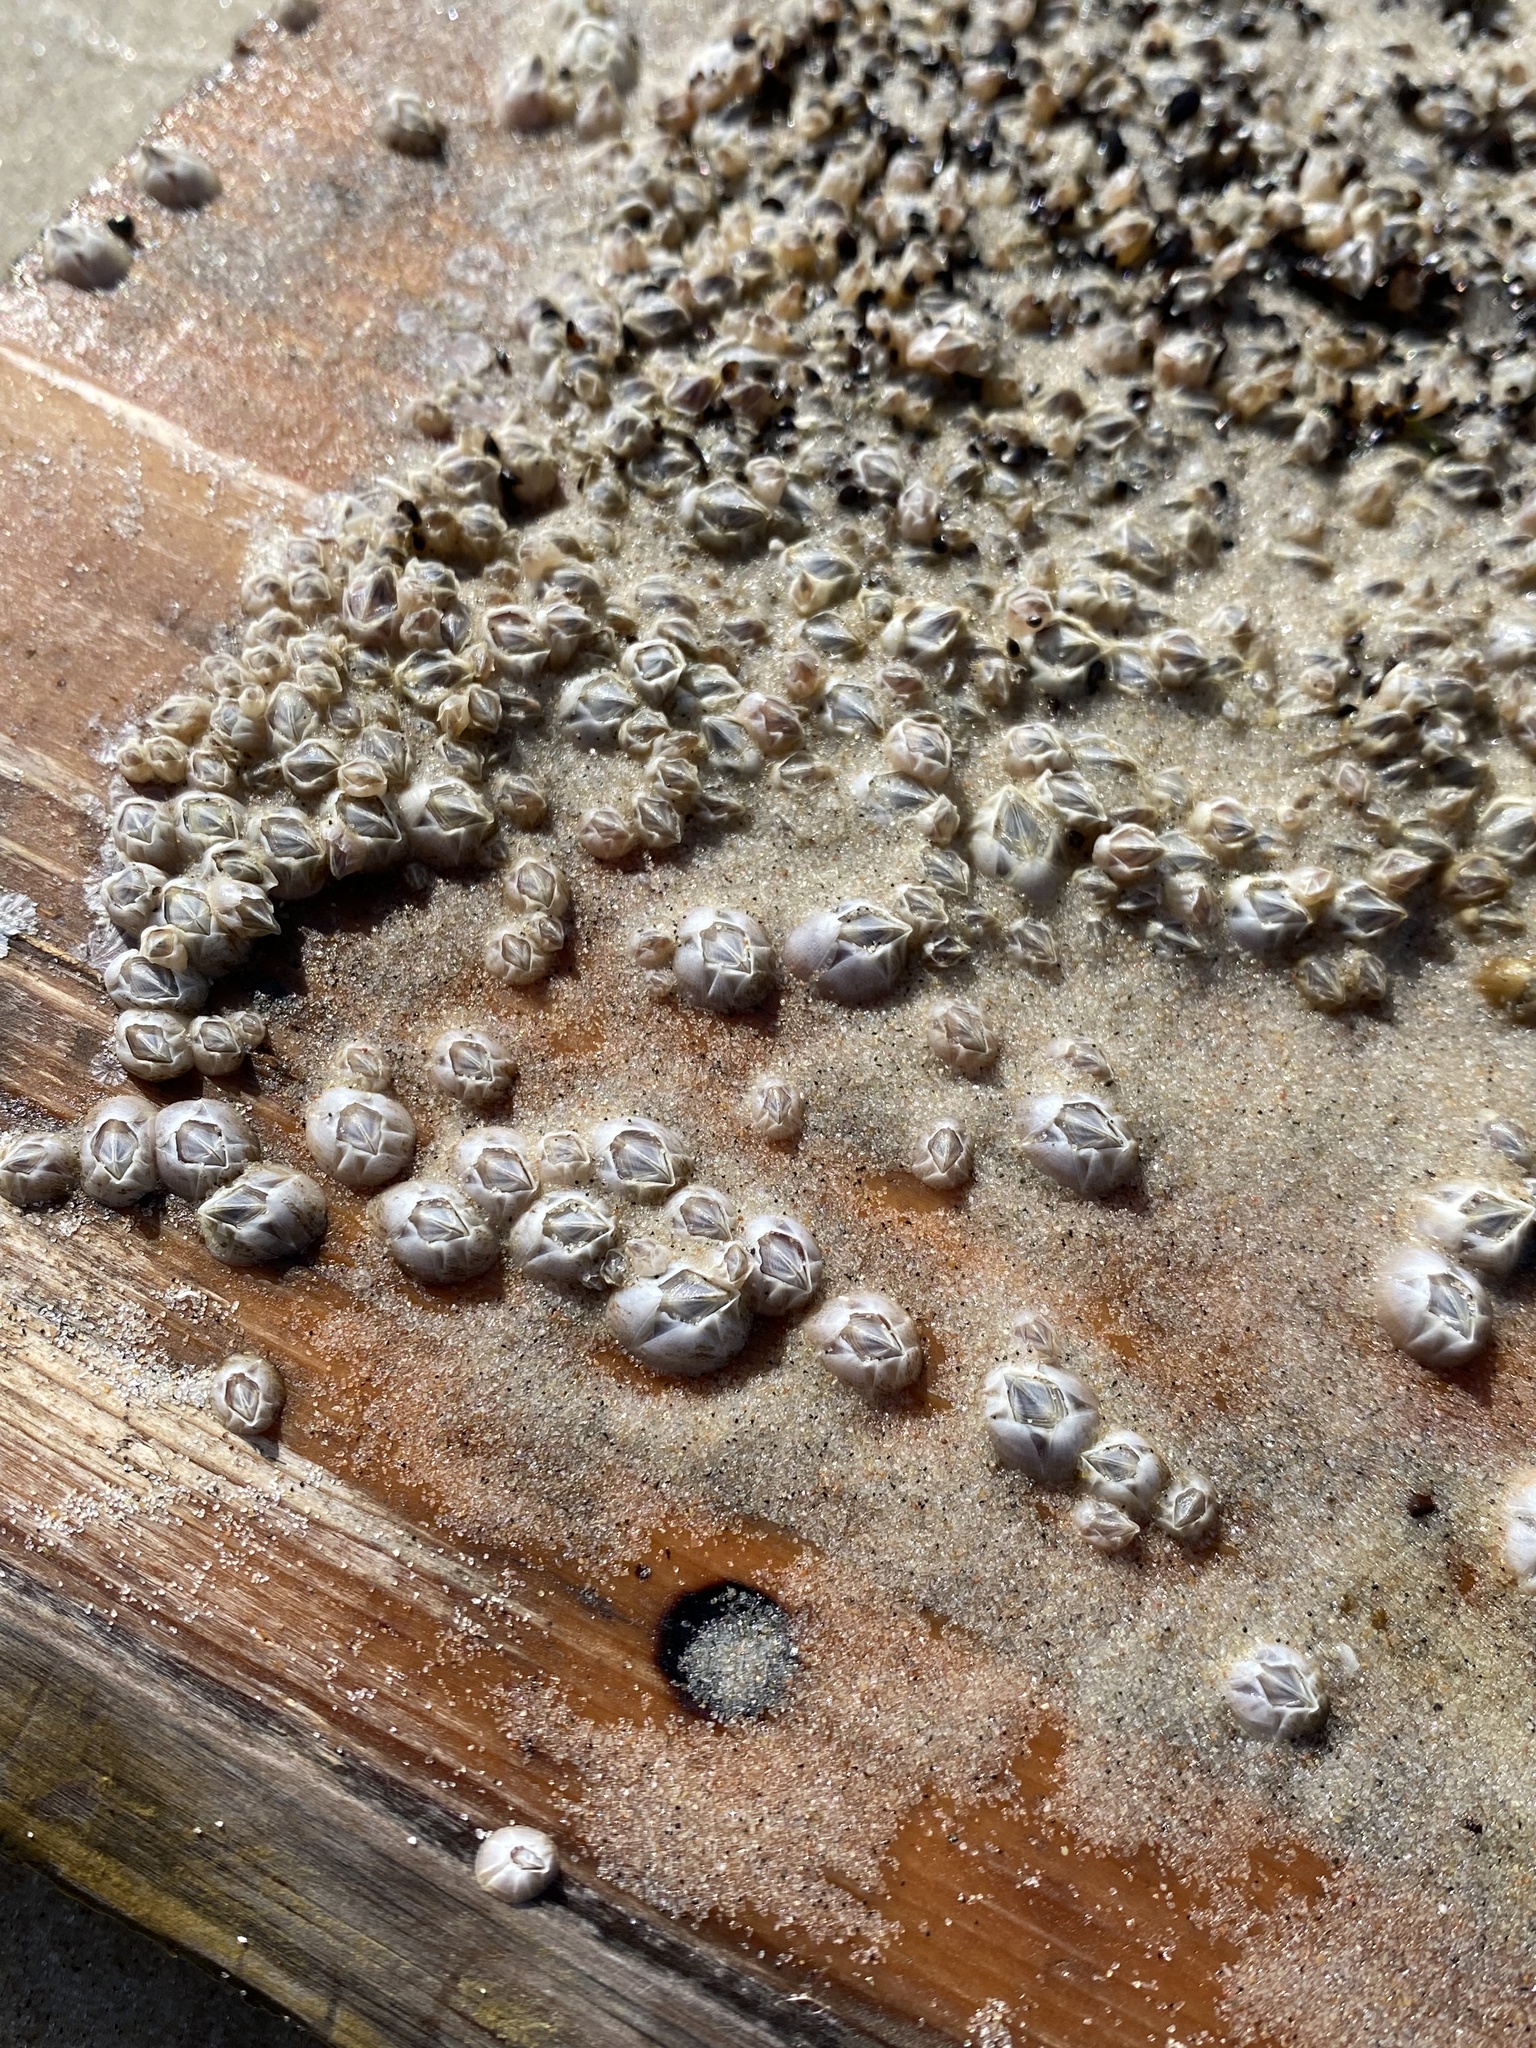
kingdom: Animalia
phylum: Arthropoda
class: Maxillopoda
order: Sessilia
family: Balanidae
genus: Amphibalanus
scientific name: Amphibalanus improvisus
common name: Bay barnacle
